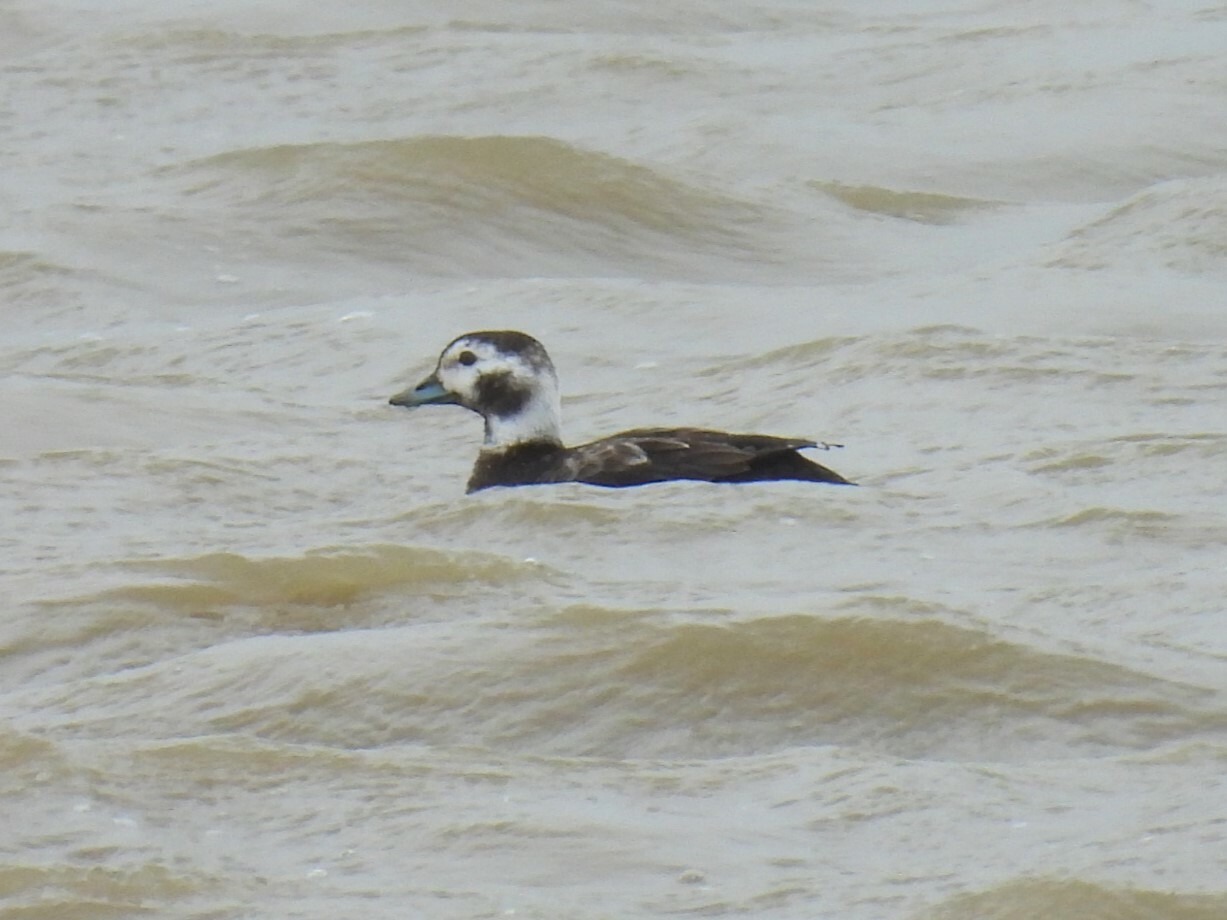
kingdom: Animalia
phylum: Chordata
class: Aves
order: Anseriformes
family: Anatidae
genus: Clangula
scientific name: Clangula hyemalis
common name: Long-tailed duck
